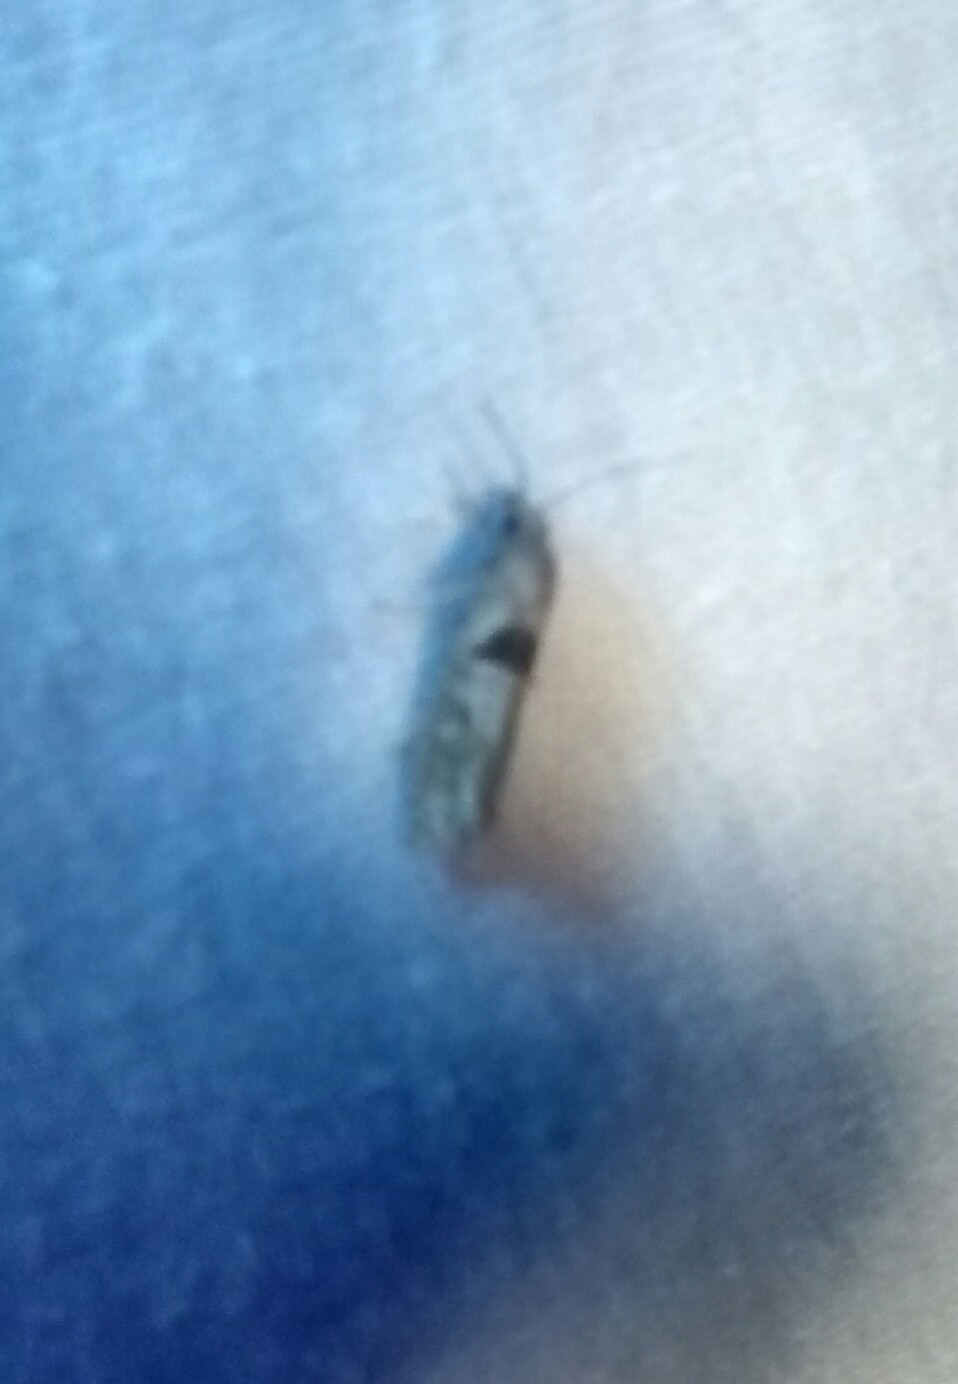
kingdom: Animalia
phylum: Arthropoda
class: Insecta
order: Lepidoptera
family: Tortricidae
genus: Pelochrista
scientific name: Pelochrista dorsisignatana
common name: Triangle-backed pelochrista moth
